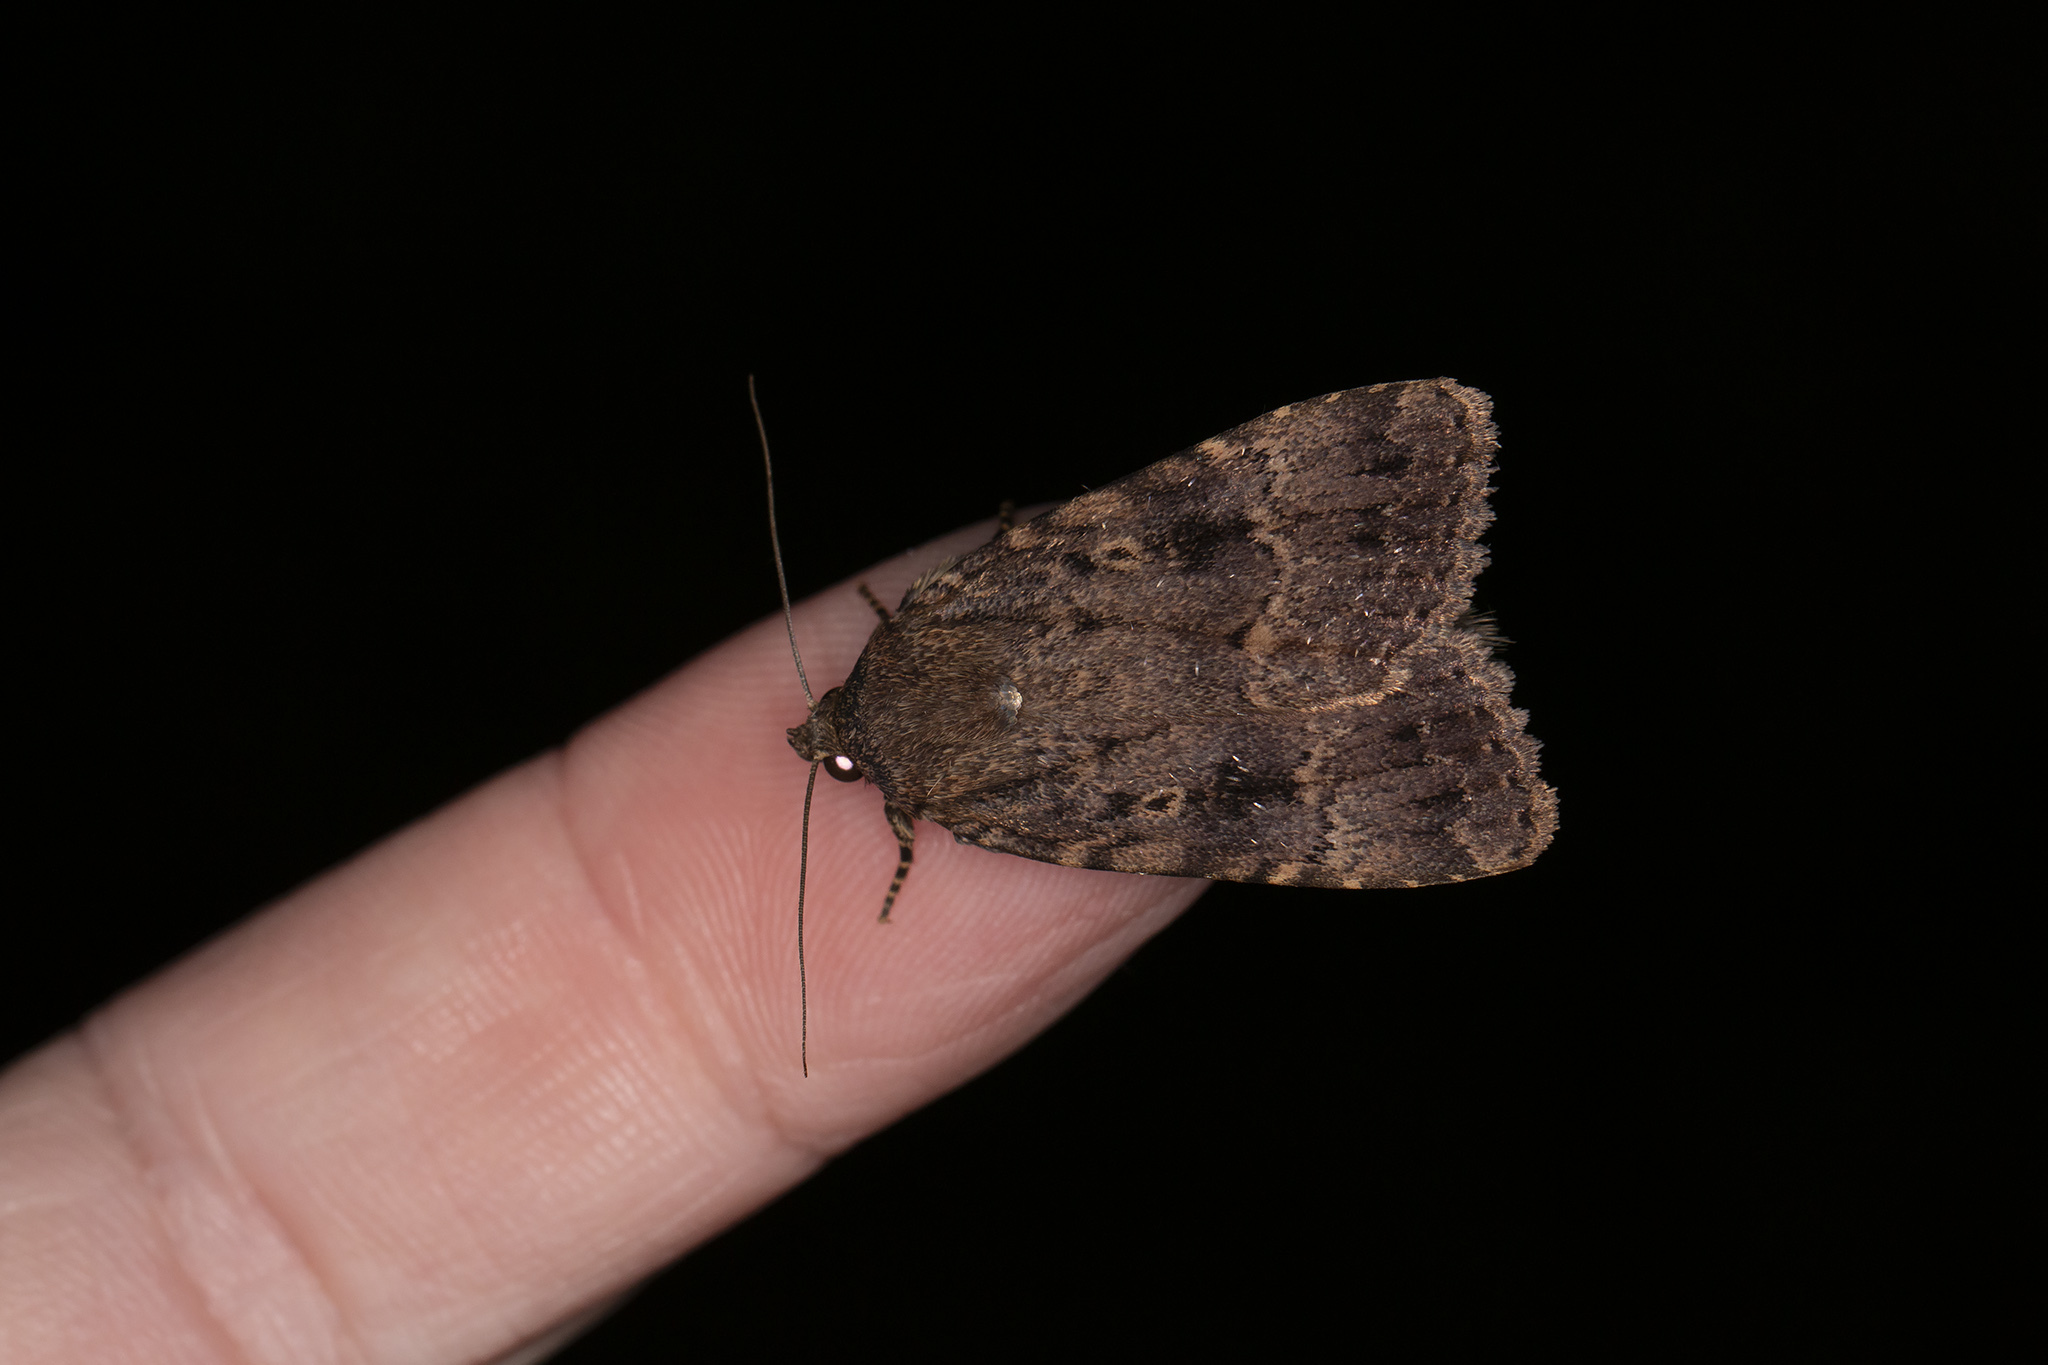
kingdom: Animalia
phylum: Arthropoda
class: Insecta
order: Lepidoptera
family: Noctuidae
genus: Amphipyra
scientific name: Amphipyra berbera
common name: Svensson's copper underwing
